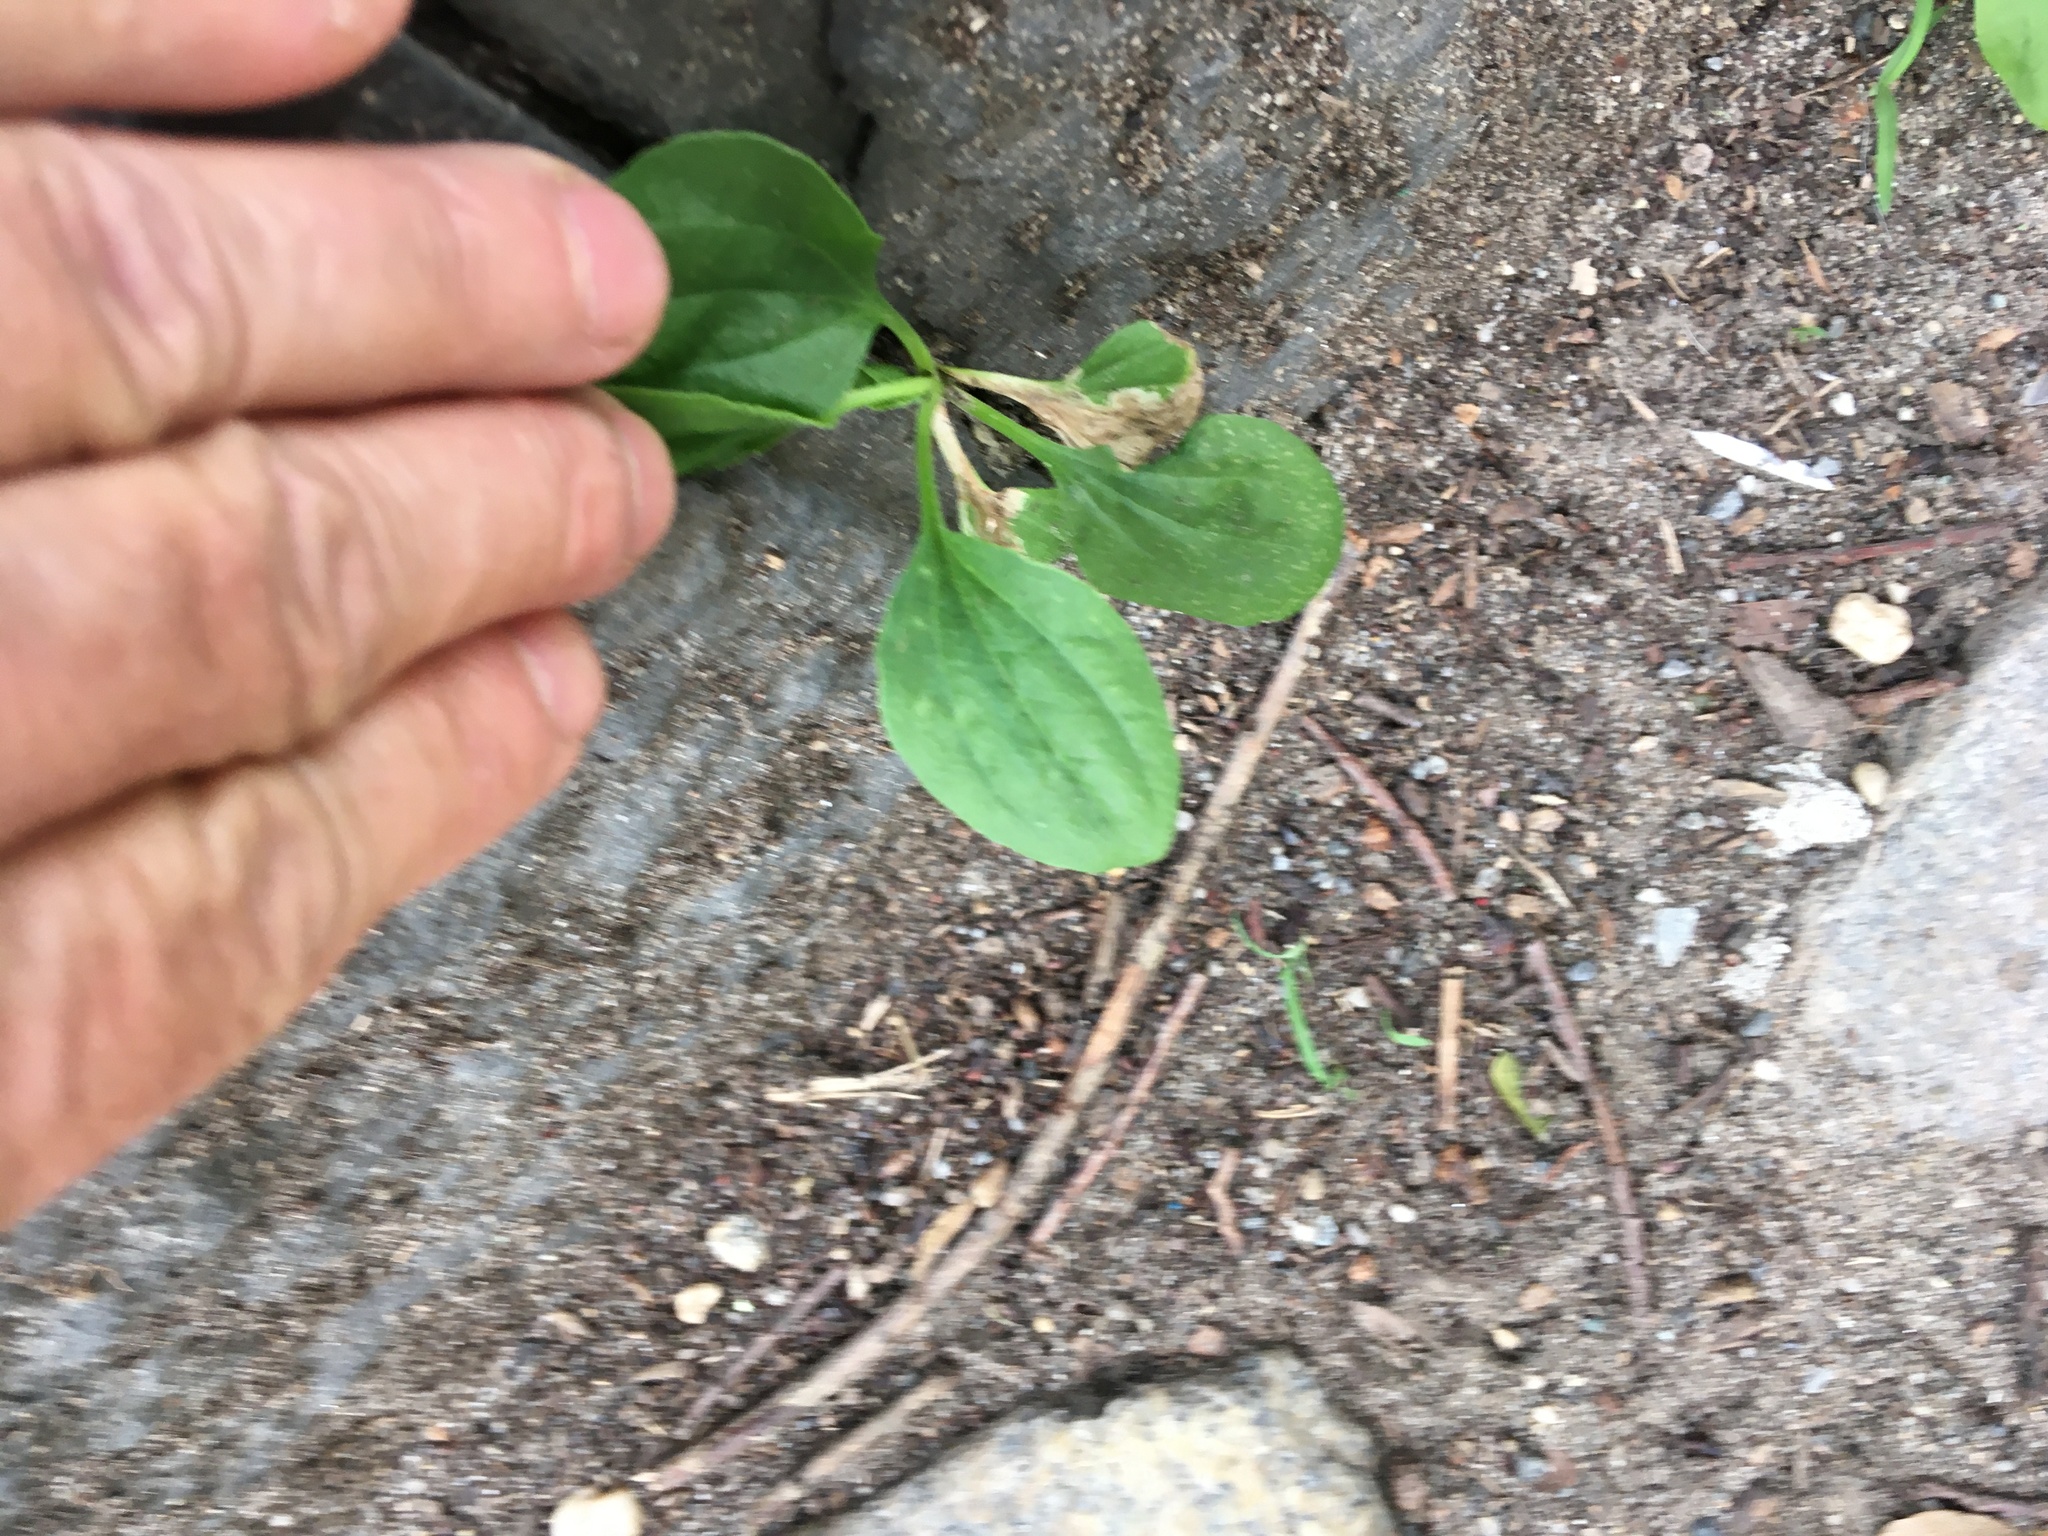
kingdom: Plantae
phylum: Tracheophyta
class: Magnoliopsida
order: Lamiales
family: Plantaginaceae
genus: Plantago
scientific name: Plantago major
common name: Common plantain
